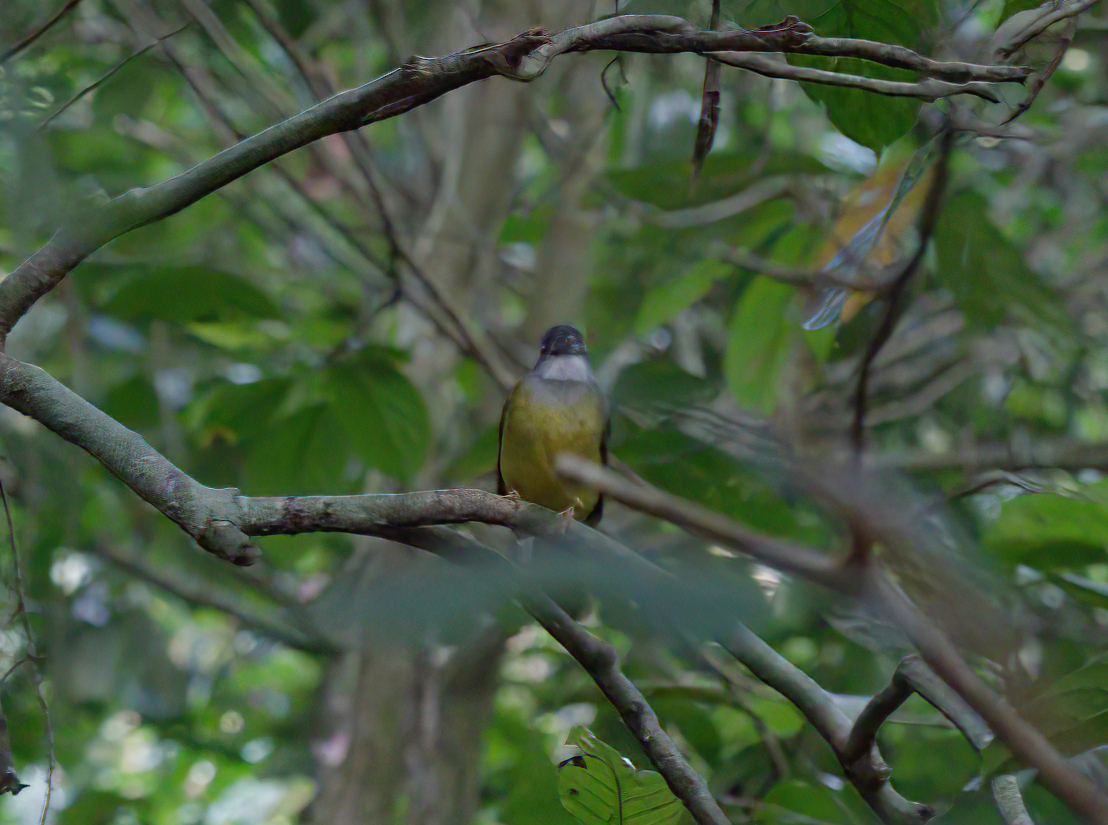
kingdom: Animalia
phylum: Chordata
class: Aves
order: Passeriformes
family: Pycnonotidae
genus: Alophoixus
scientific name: Alophoixus phaeocephalus
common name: Yellow-bellied bulbul
